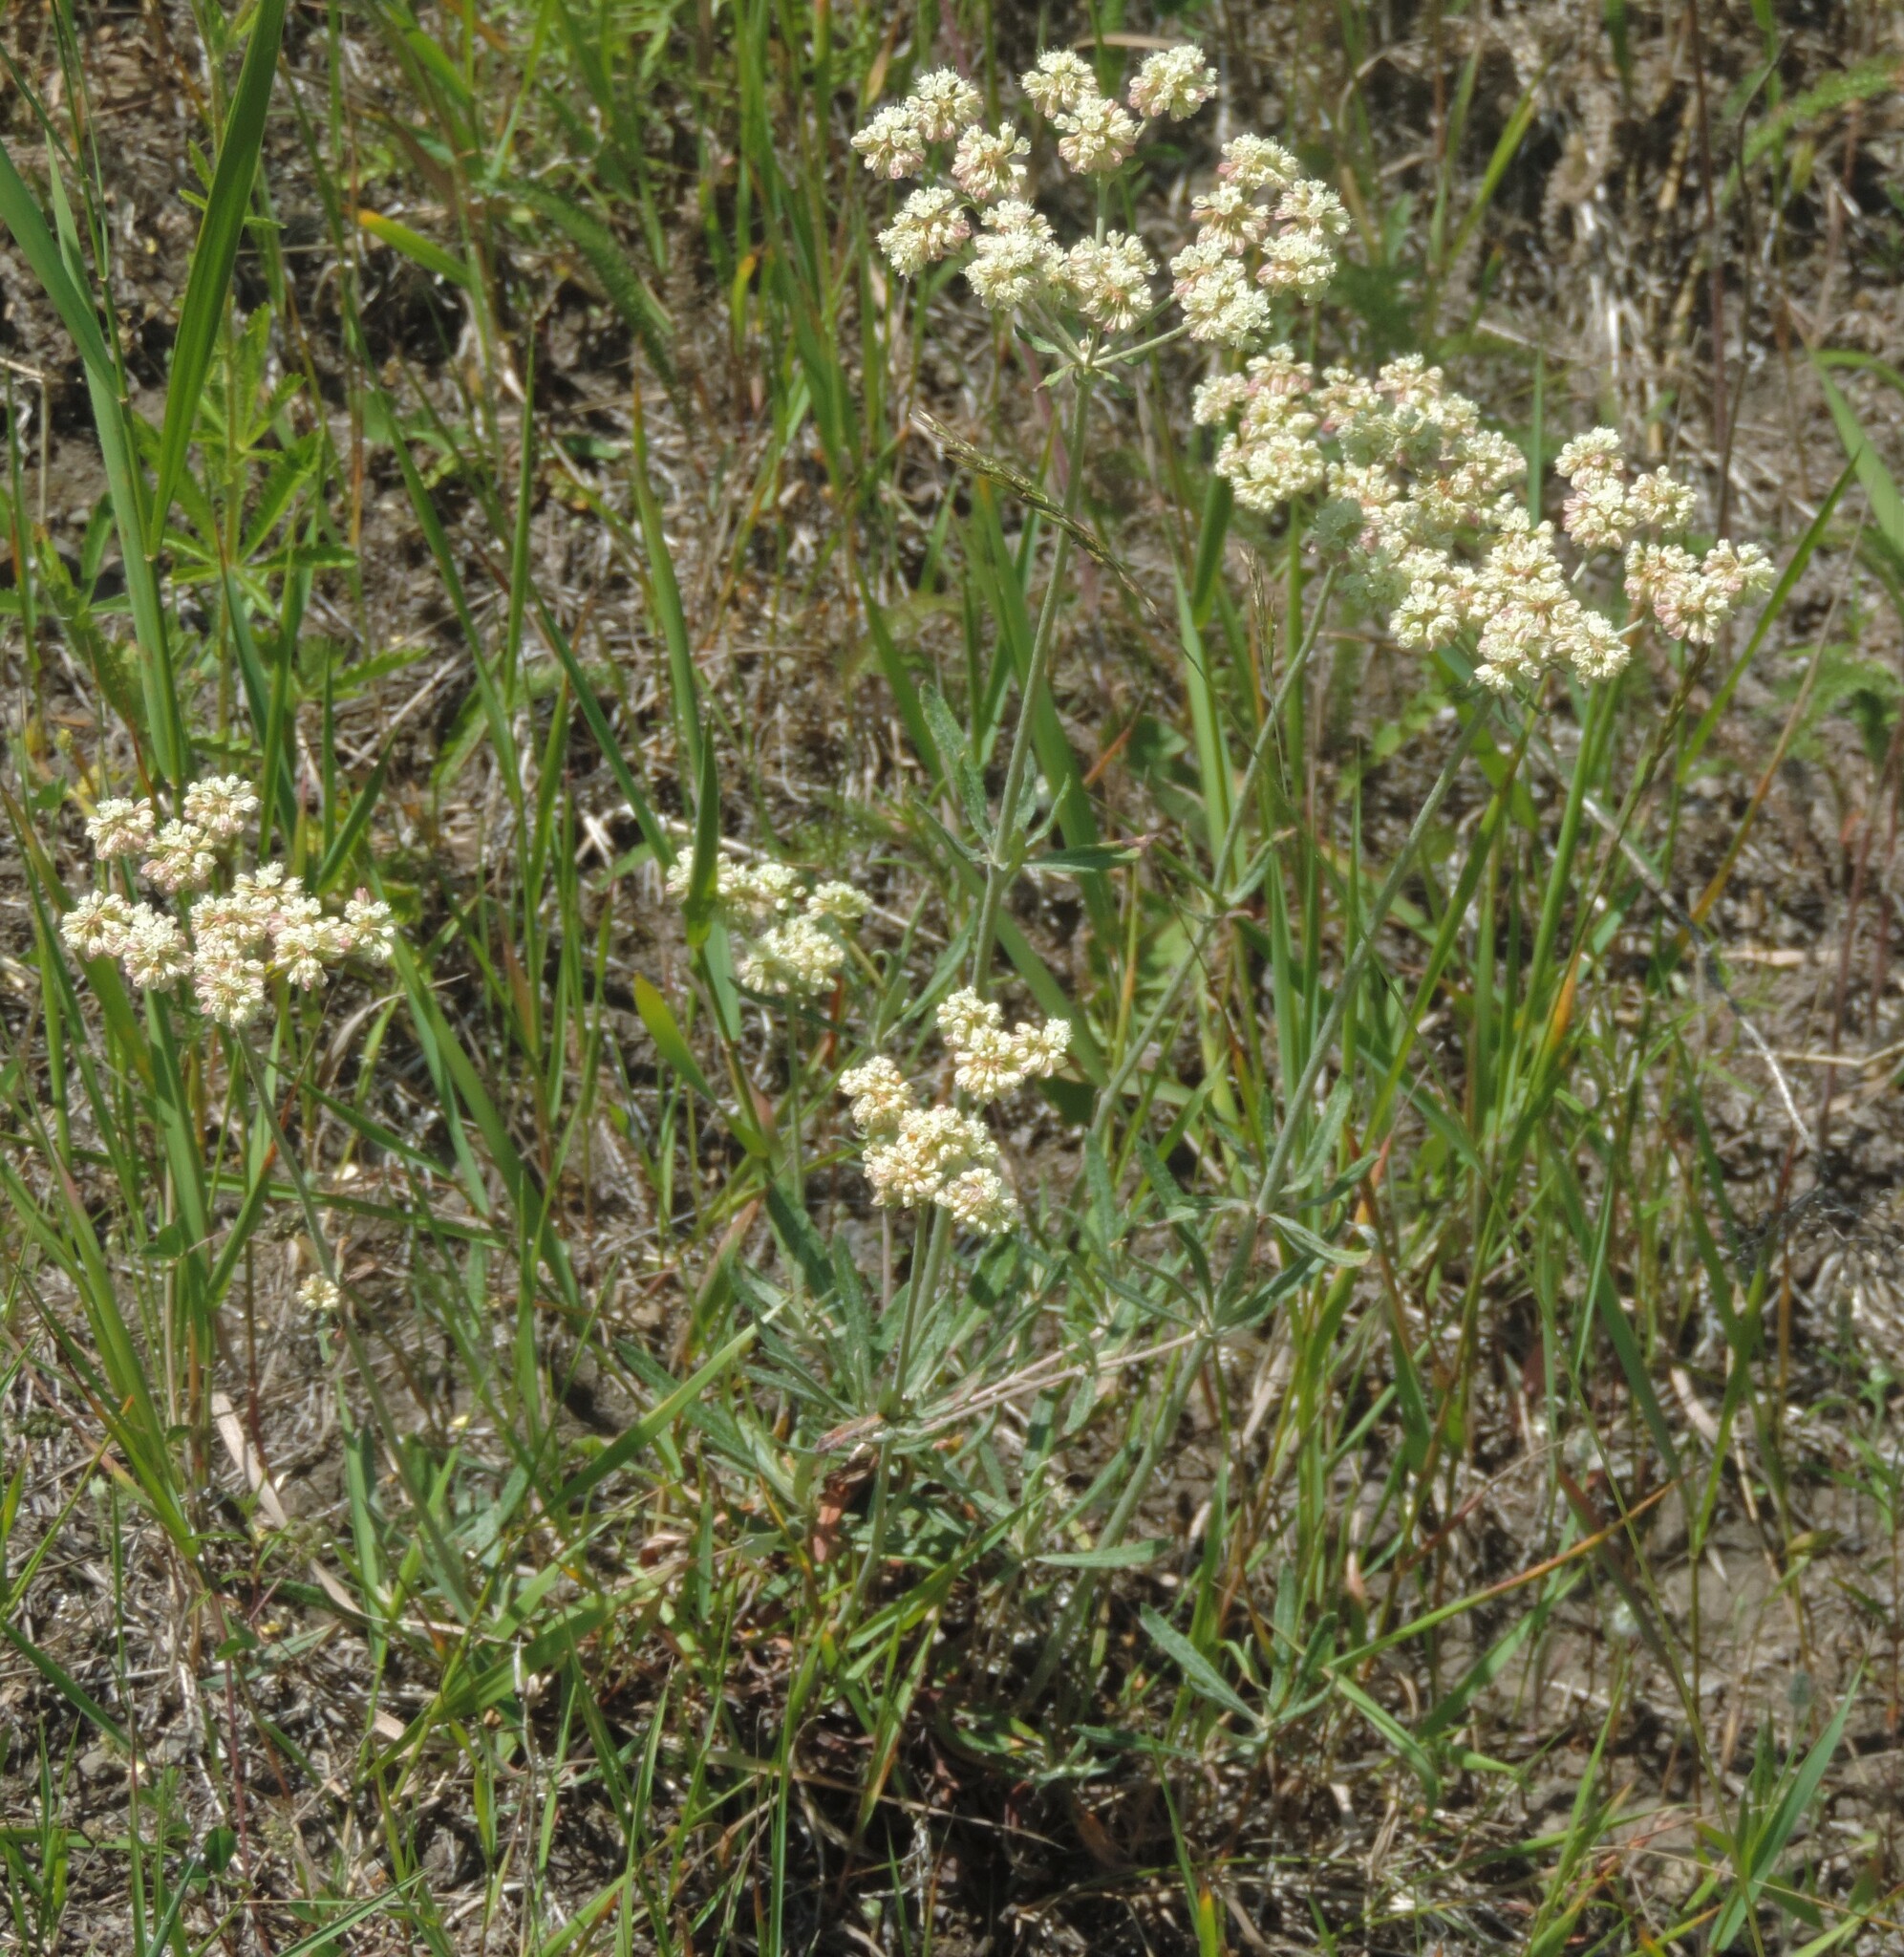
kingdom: Plantae
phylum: Tracheophyta
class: Magnoliopsida
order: Caryophyllales
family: Polygonaceae
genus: Eriogonum
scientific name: Eriogonum heracleoides
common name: Wyeth's buckwheat
